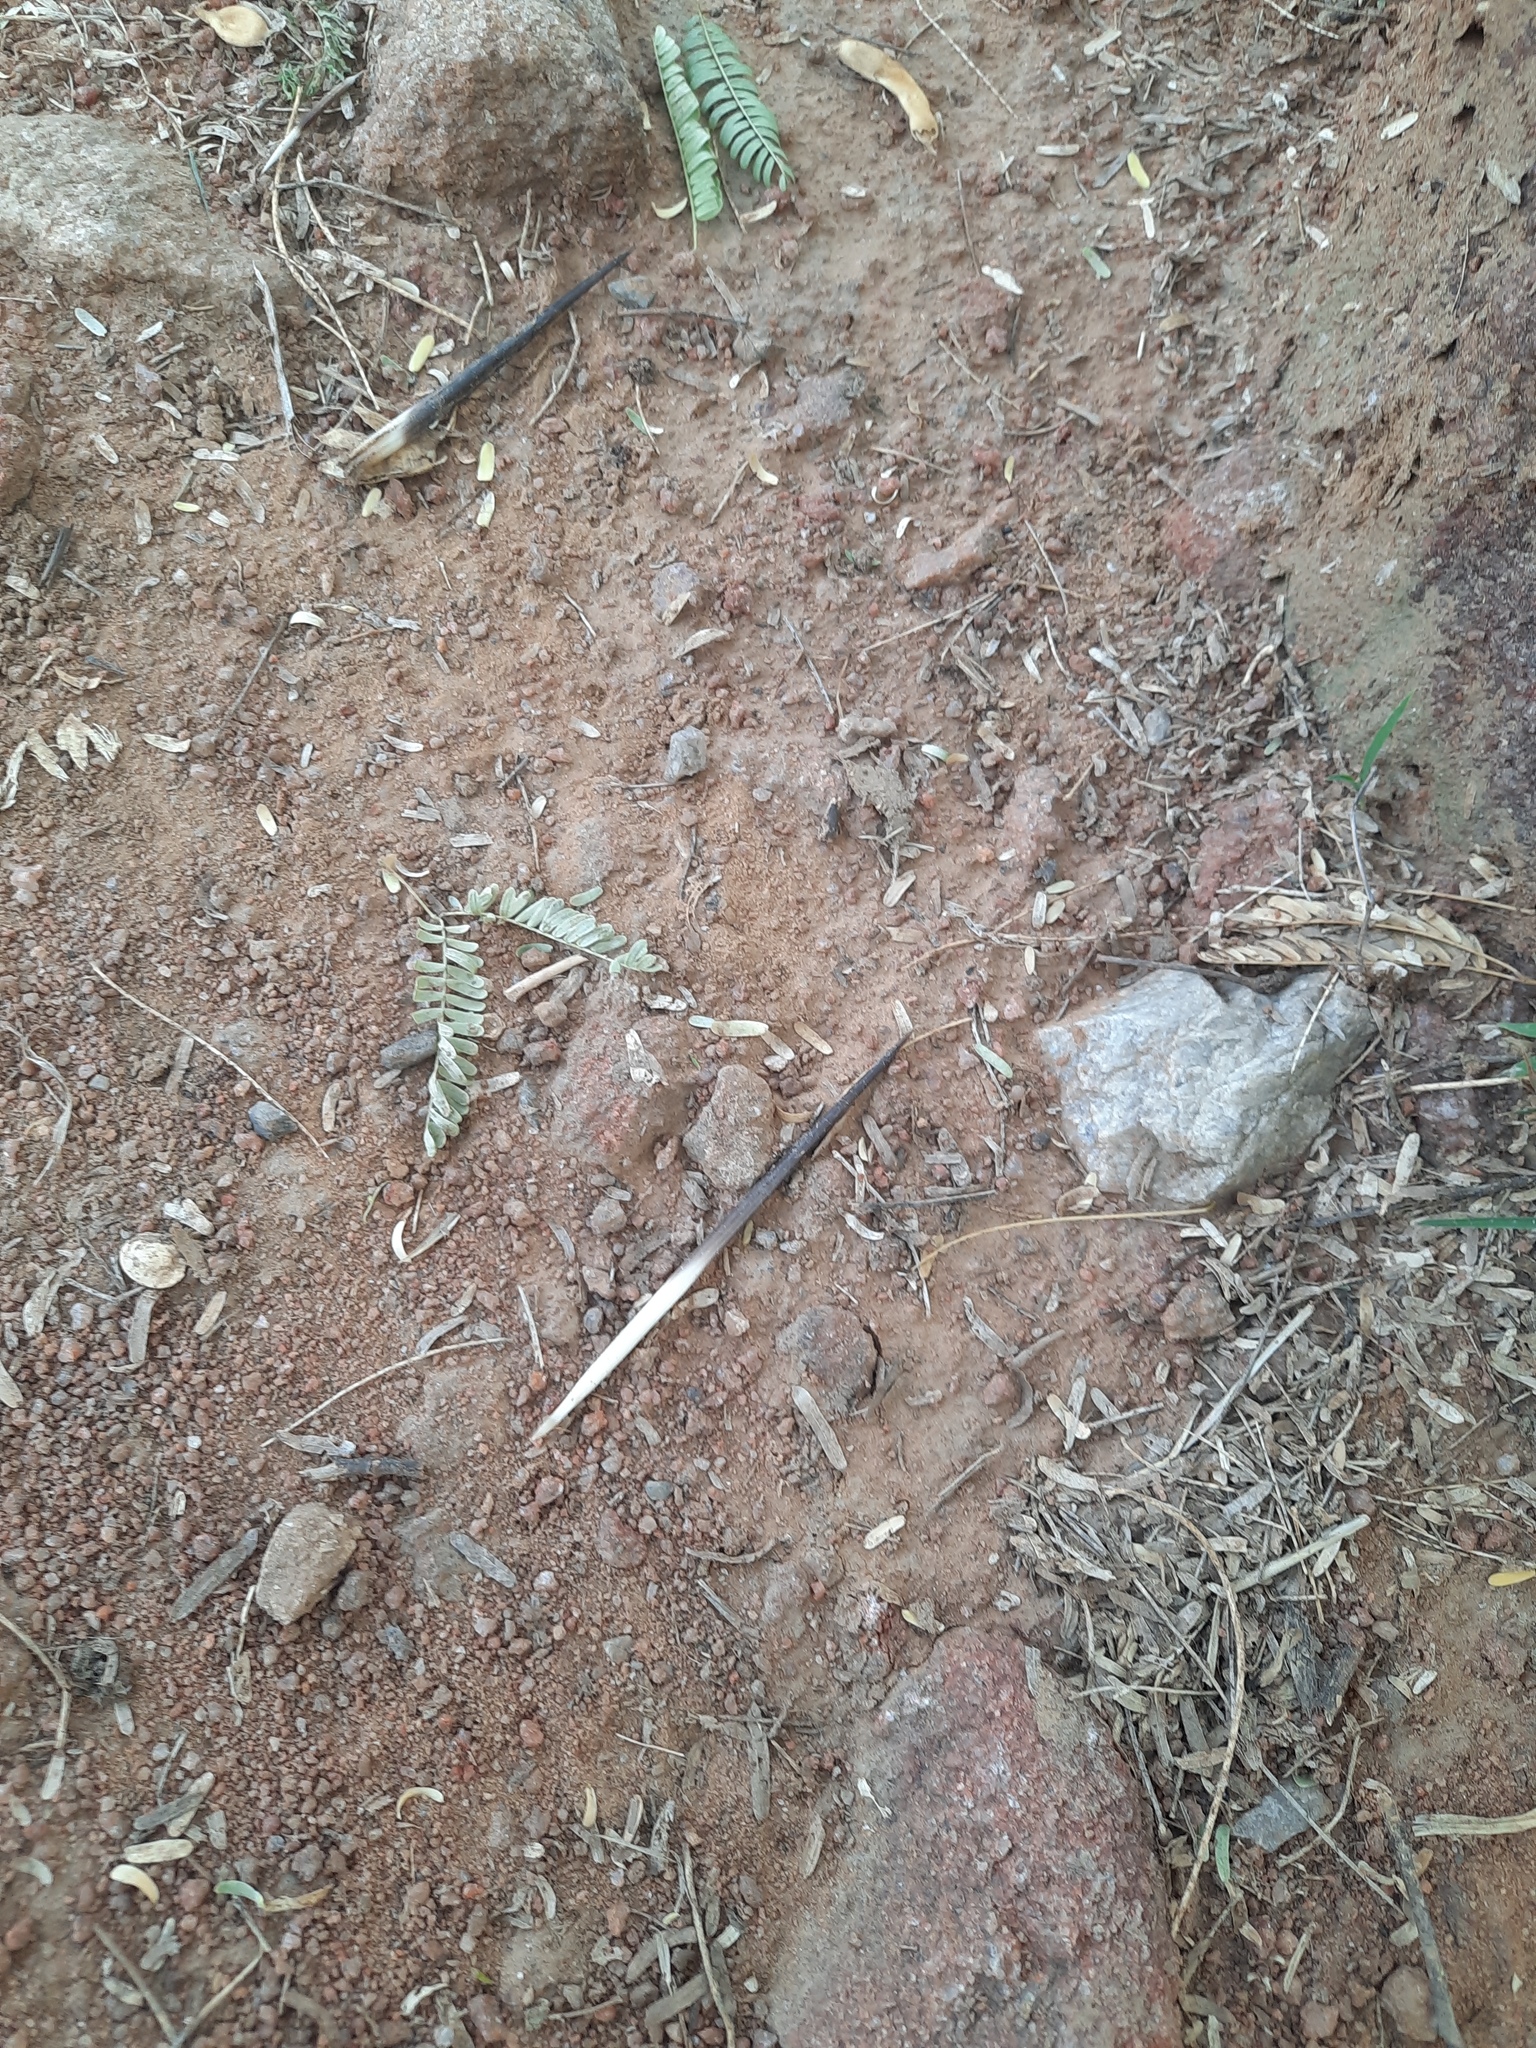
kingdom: Animalia
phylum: Chordata
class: Mammalia
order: Rodentia
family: Hystricidae
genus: Hystrix
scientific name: Hystrix indica
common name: Indian crested porcupine
